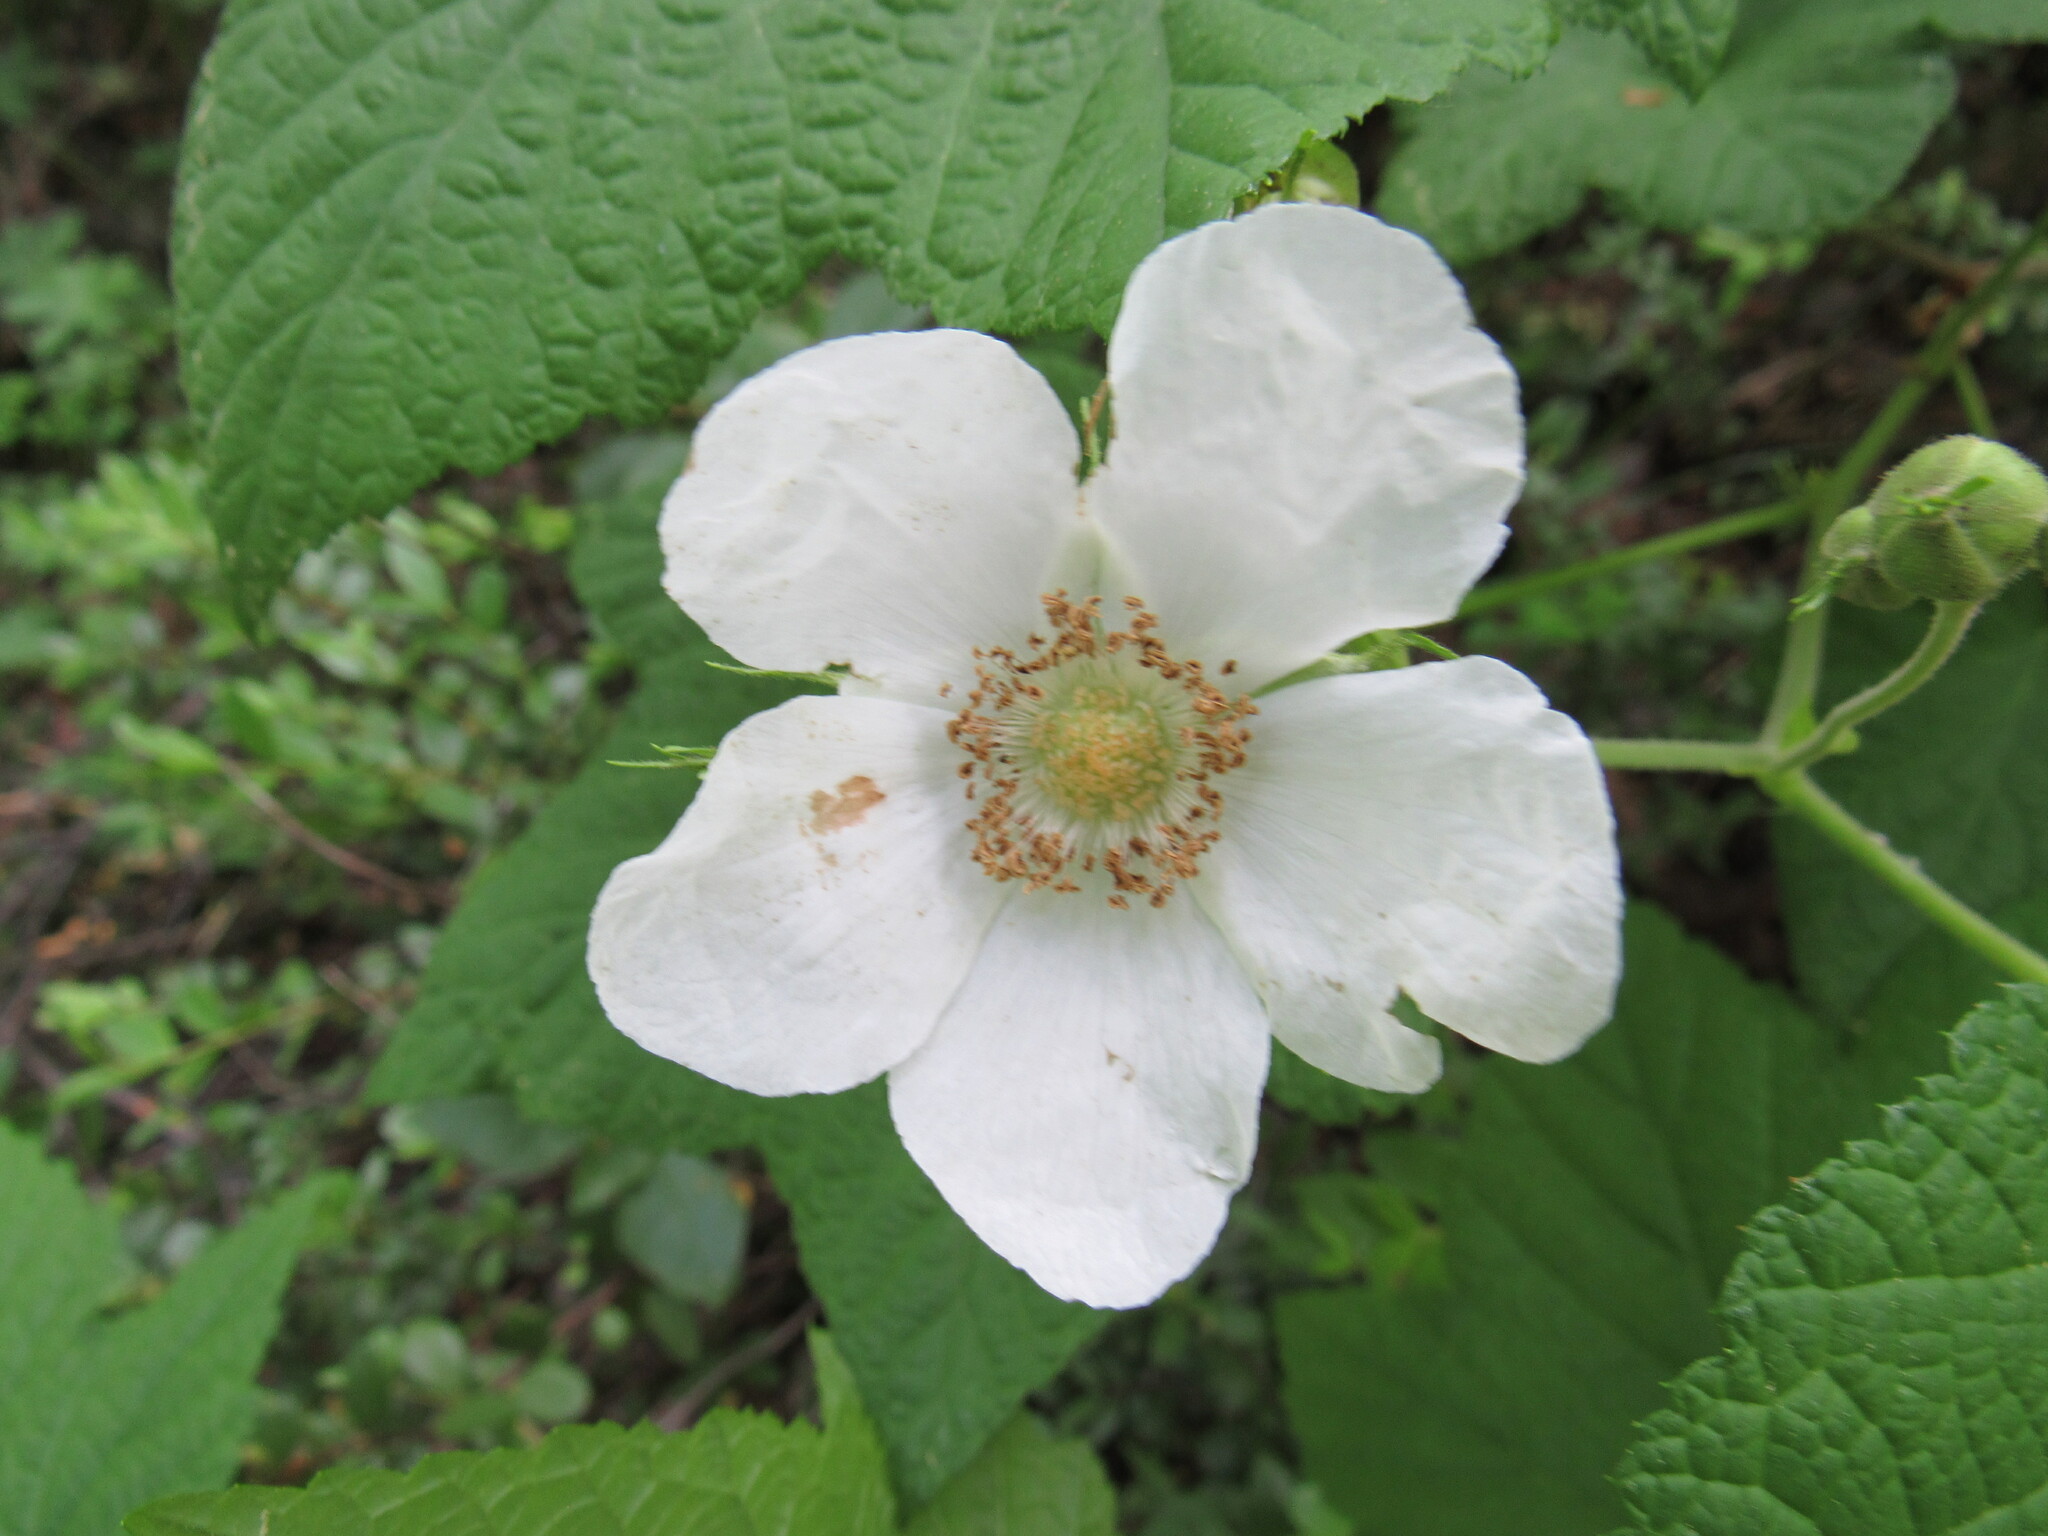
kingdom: Plantae
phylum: Tracheophyta
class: Magnoliopsida
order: Rosales
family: Rosaceae
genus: Rubus
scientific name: Rubus parviflorus
